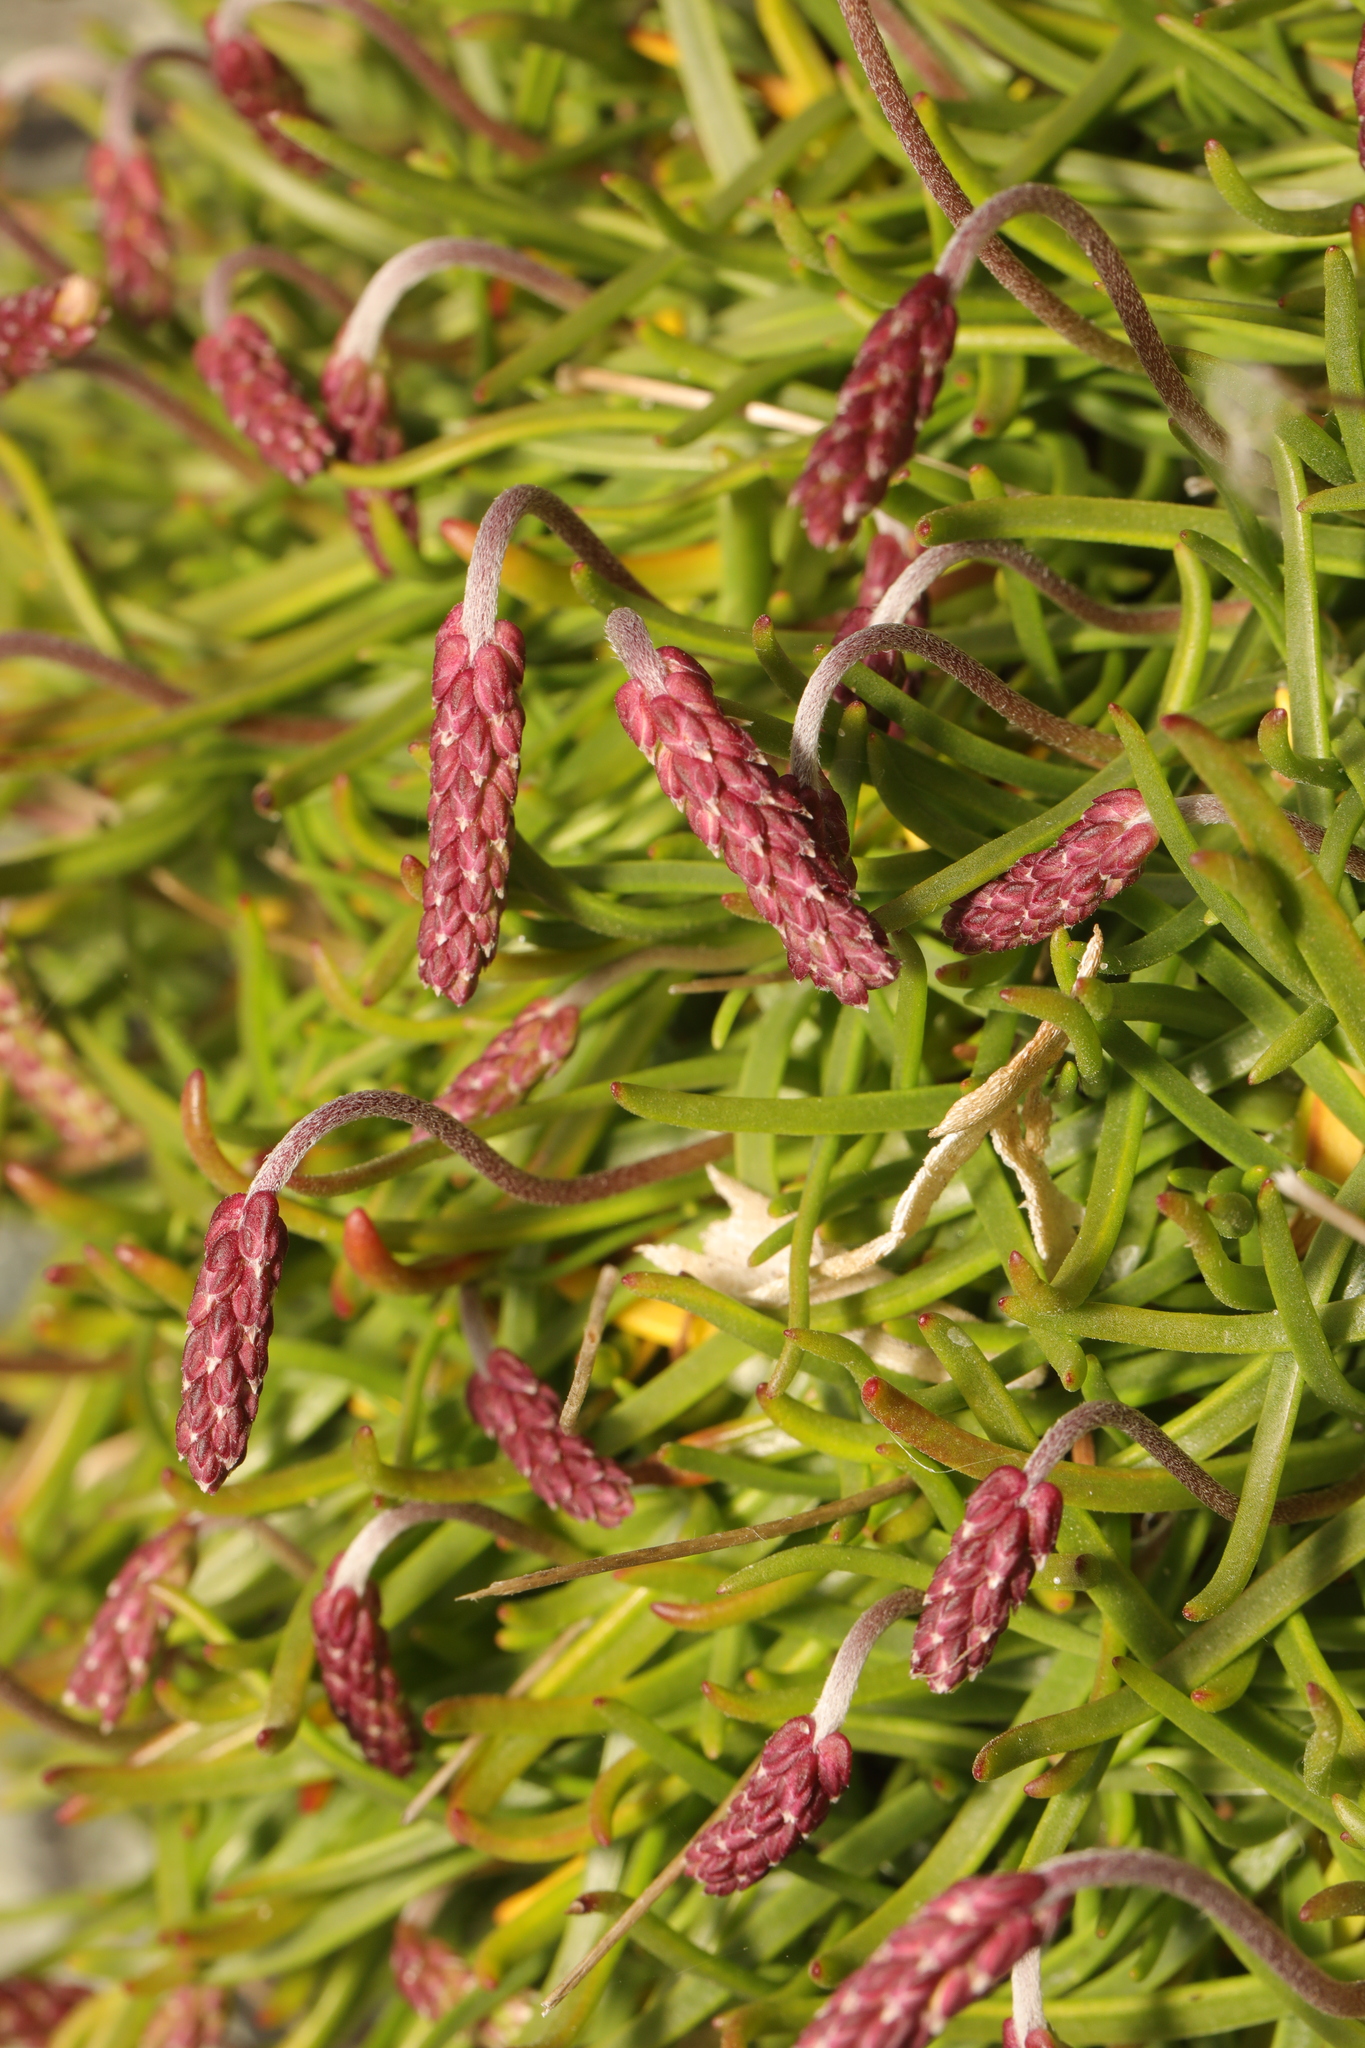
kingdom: Plantae
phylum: Tracheophyta
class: Magnoliopsida
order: Lamiales
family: Plantaginaceae
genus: Plantago
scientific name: Plantago maritima
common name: Sea plantain
